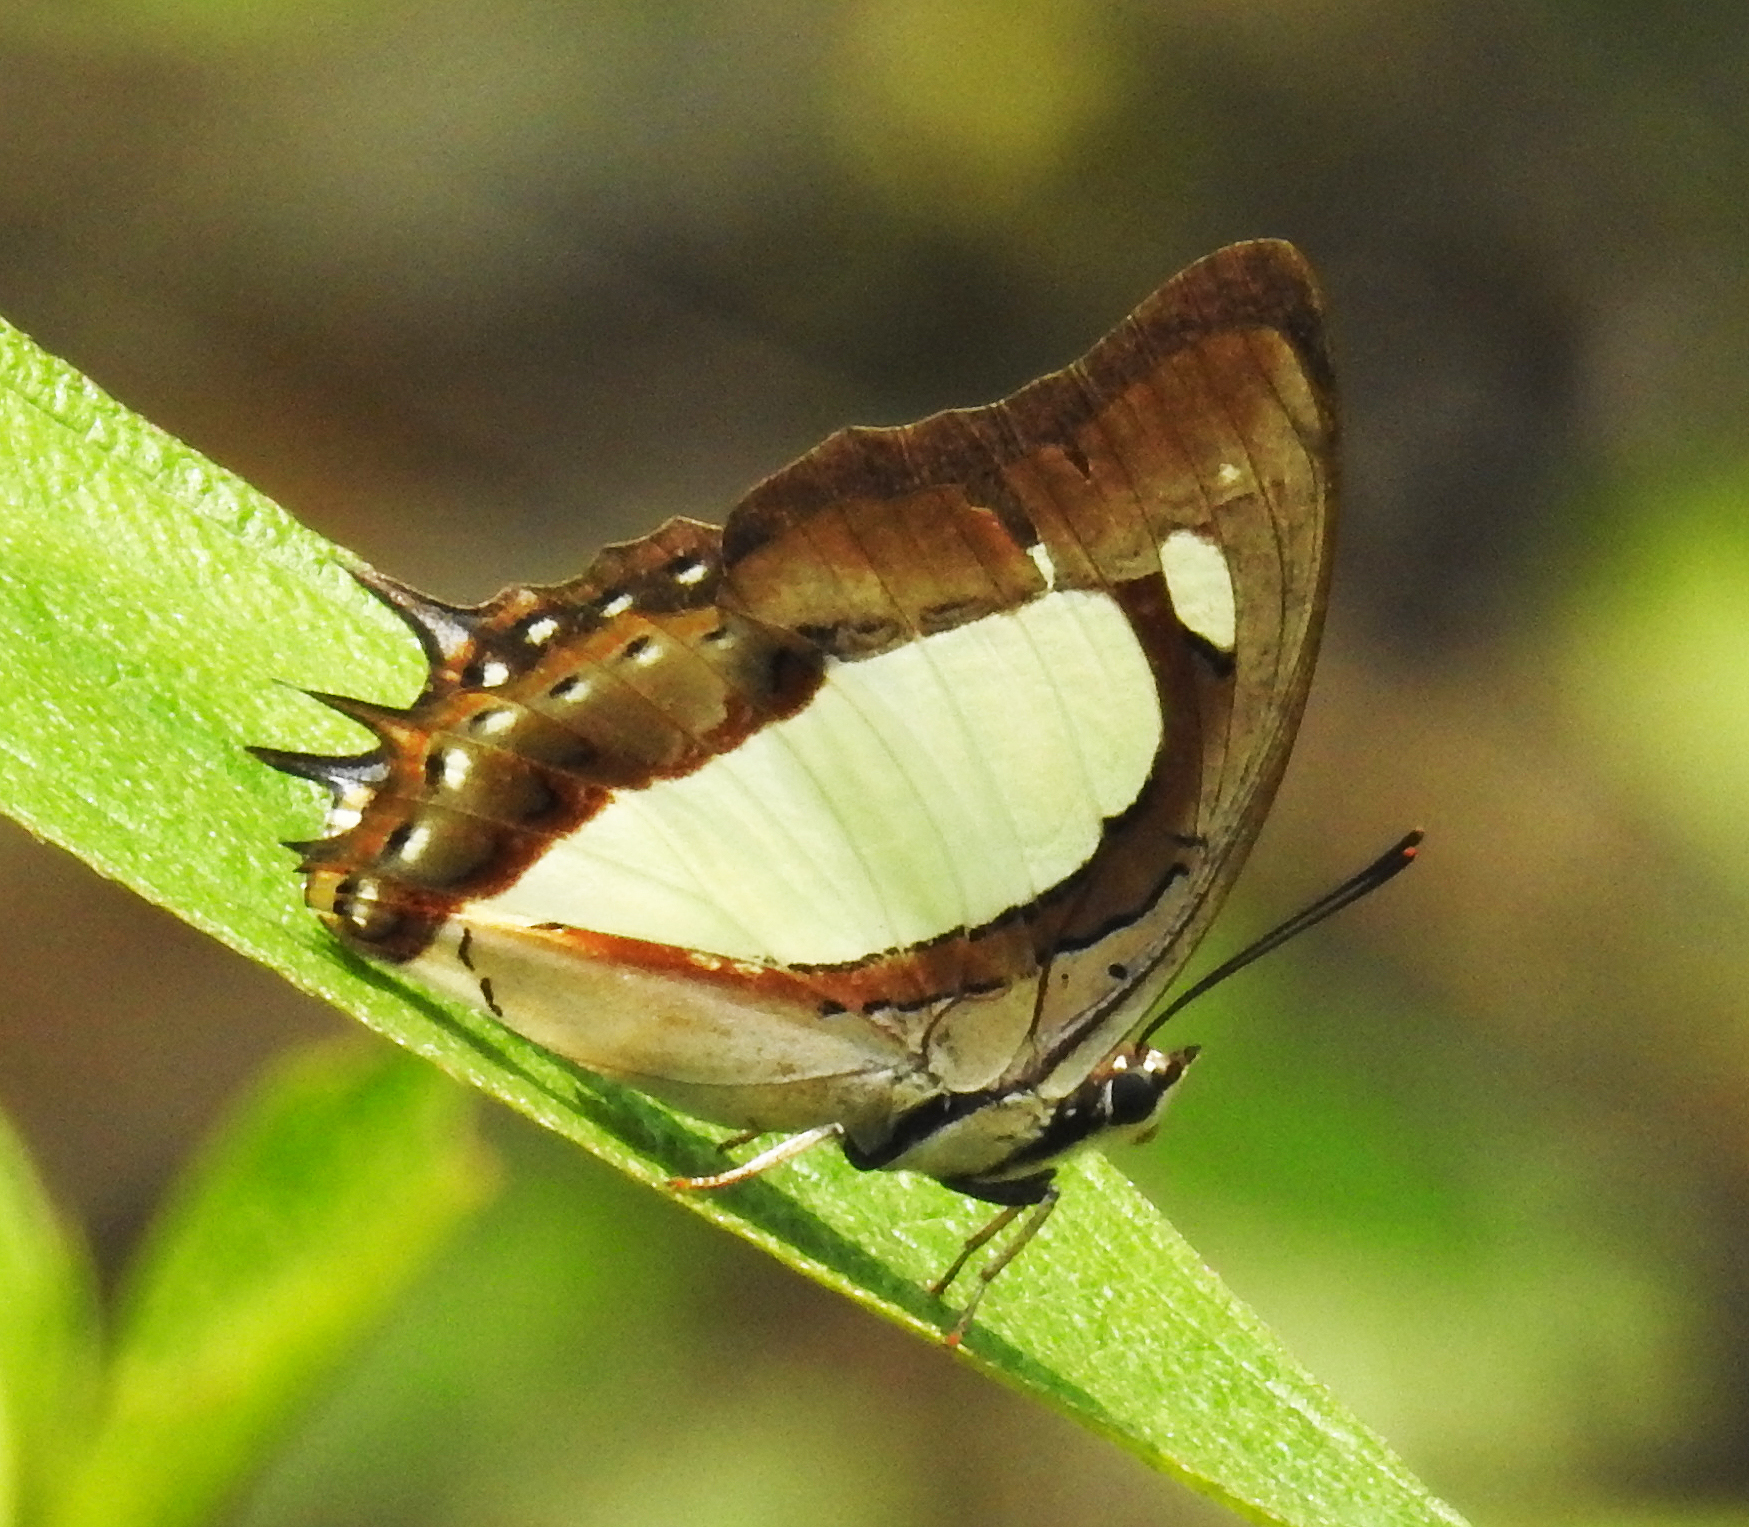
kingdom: Animalia
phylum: Arthropoda
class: Insecta
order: Lepidoptera
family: Nymphalidae
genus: Polyura
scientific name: Polyura arja
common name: Pallid nawab
